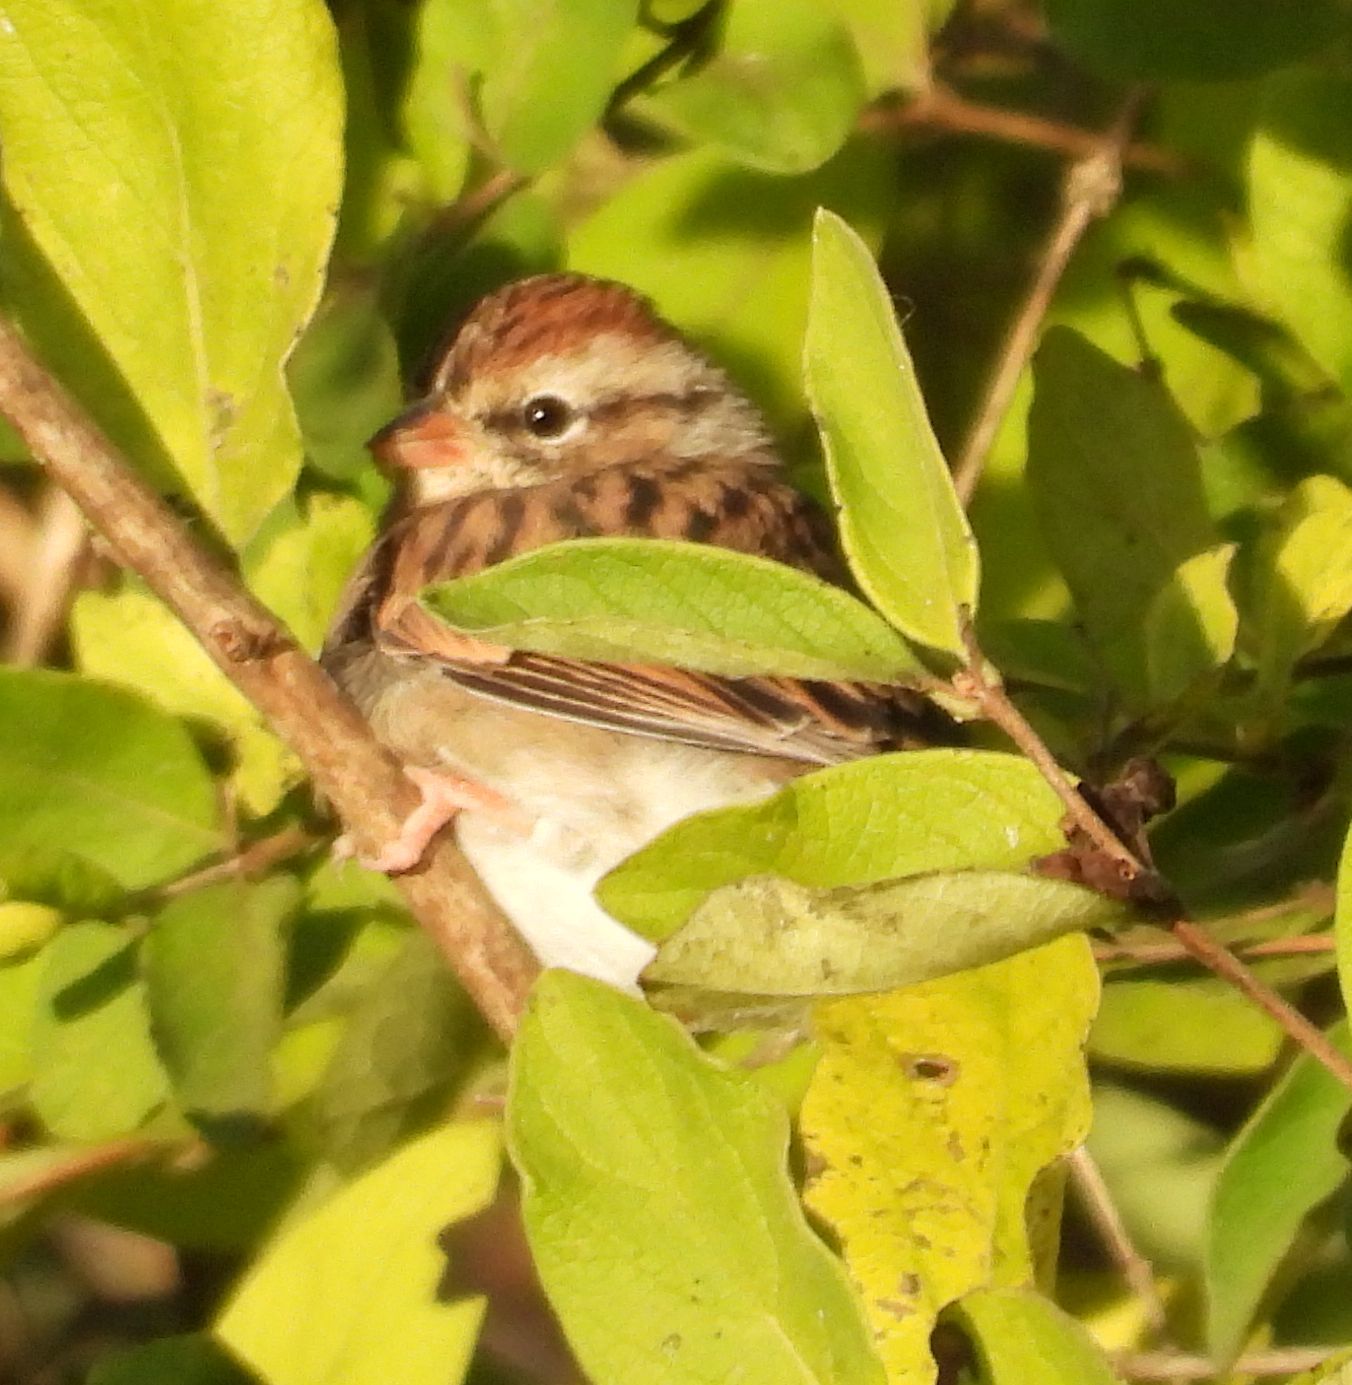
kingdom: Animalia
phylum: Chordata
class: Aves
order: Passeriformes
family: Passerellidae
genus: Spizella
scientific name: Spizella passerina
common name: Chipping sparrow
